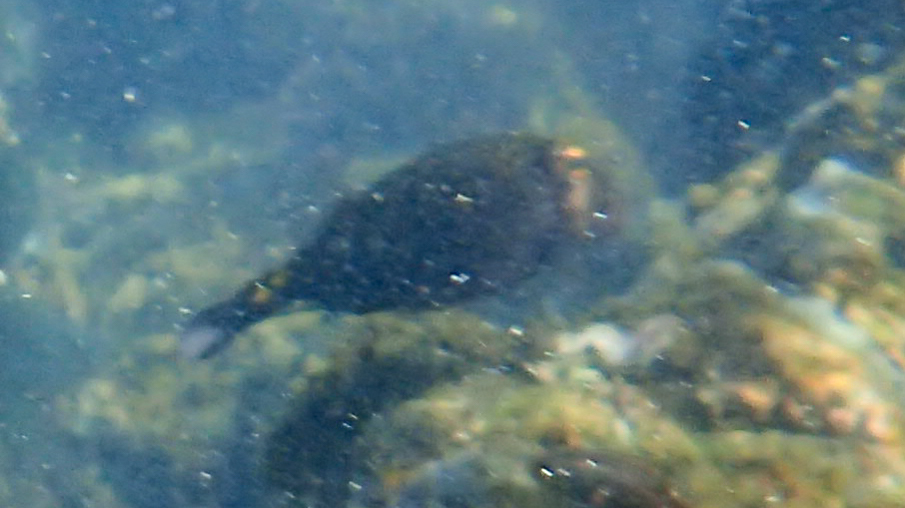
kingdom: Animalia
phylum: Chordata
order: Tetraodontiformes
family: Ostraciidae
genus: Ostracion
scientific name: Ostracion meleagris
